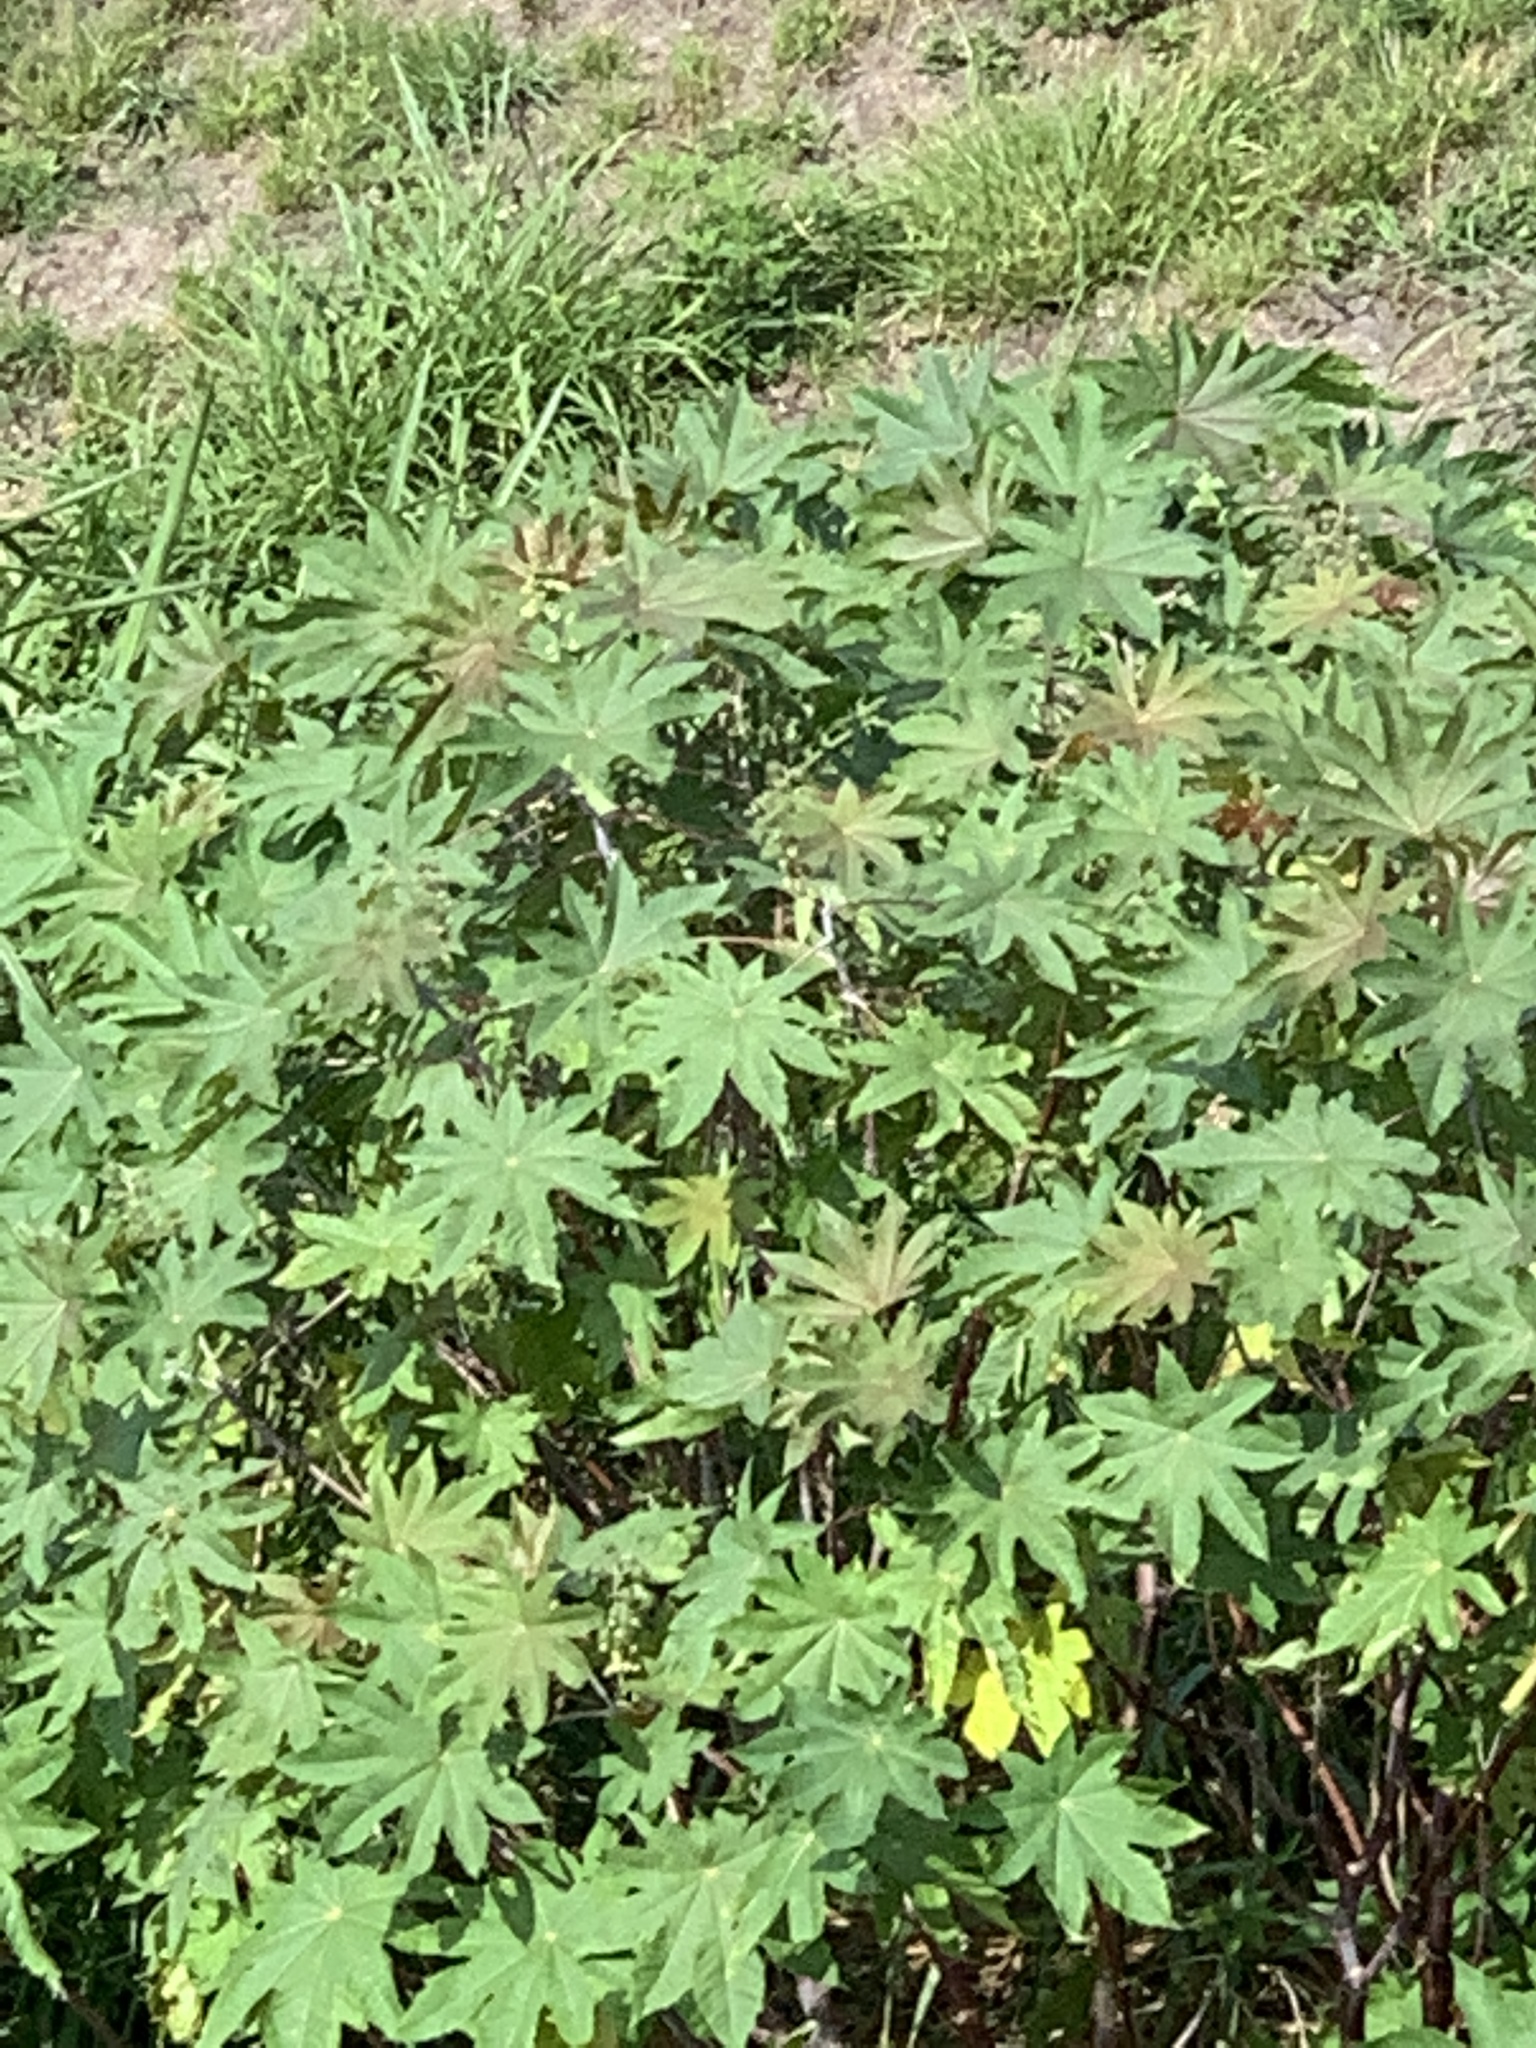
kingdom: Plantae
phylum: Tracheophyta
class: Magnoliopsida
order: Malpighiales
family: Euphorbiaceae
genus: Ricinus
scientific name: Ricinus communis
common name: Castor-oil-plant
